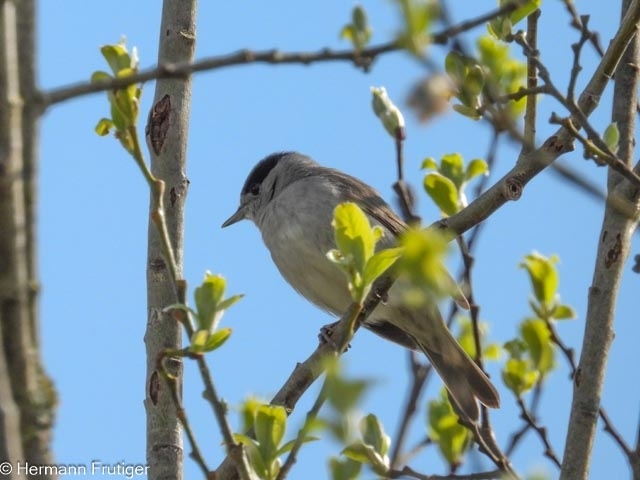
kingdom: Animalia
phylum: Chordata
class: Aves
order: Passeriformes
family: Sylviidae
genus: Sylvia
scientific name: Sylvia atricapilla
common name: Eurasian blackcap
